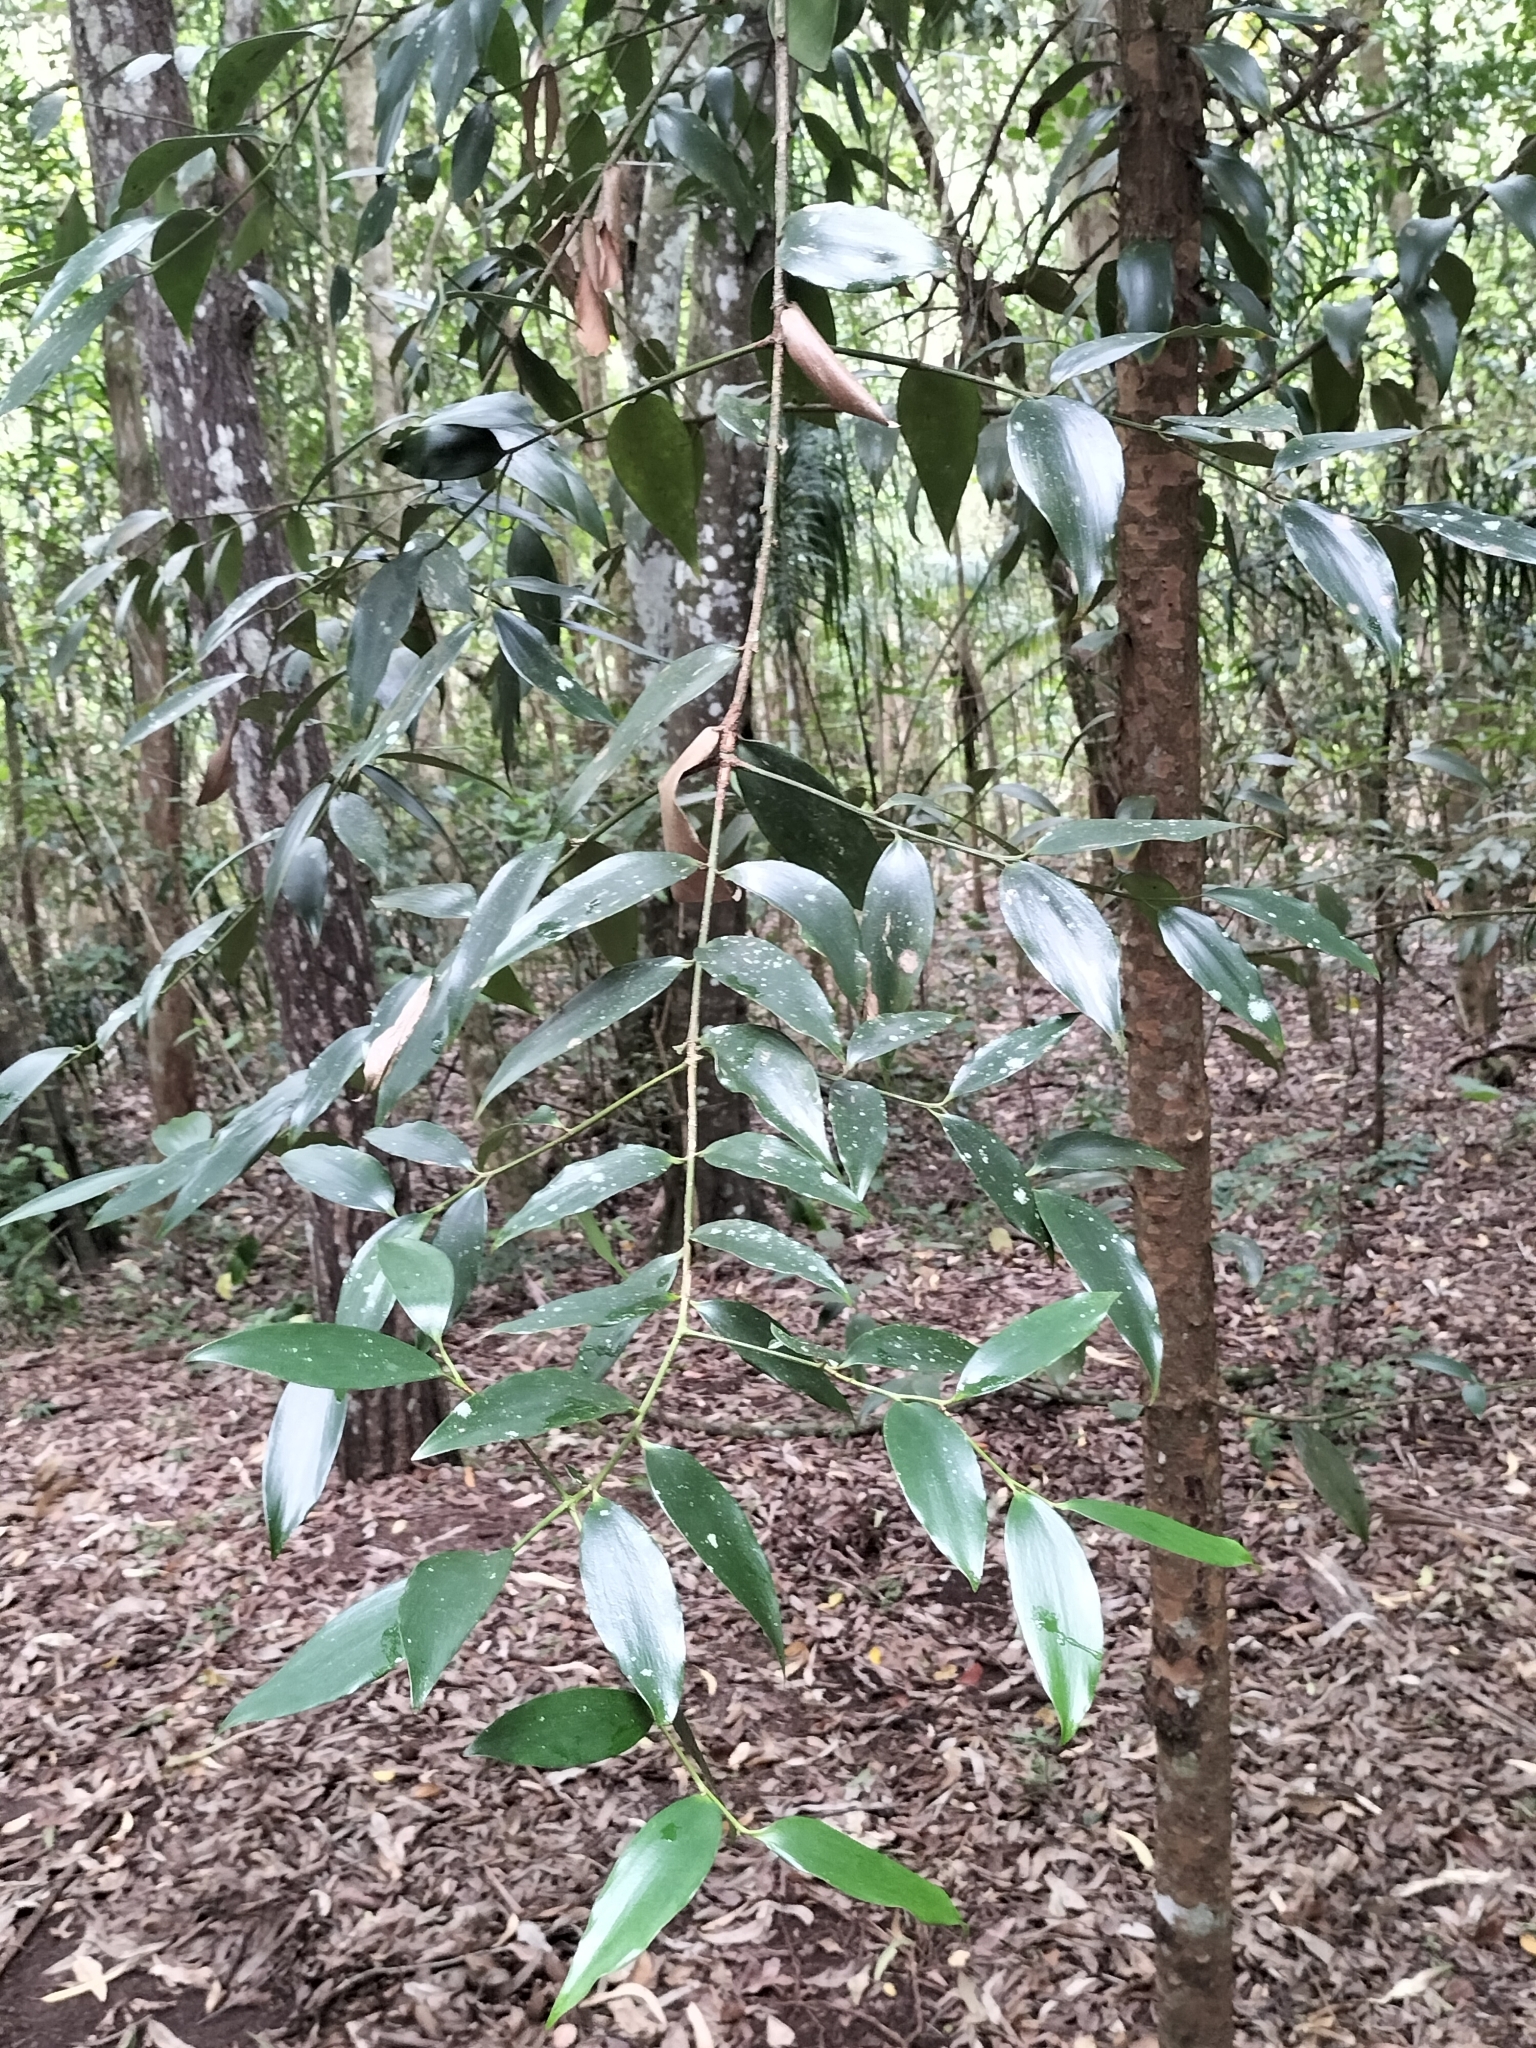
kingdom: Plantae
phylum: Tracheophyta
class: Pinopsida
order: Pinales
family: Araucariaceae
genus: Agathis
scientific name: Agathis robusta
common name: Australian-kauri
